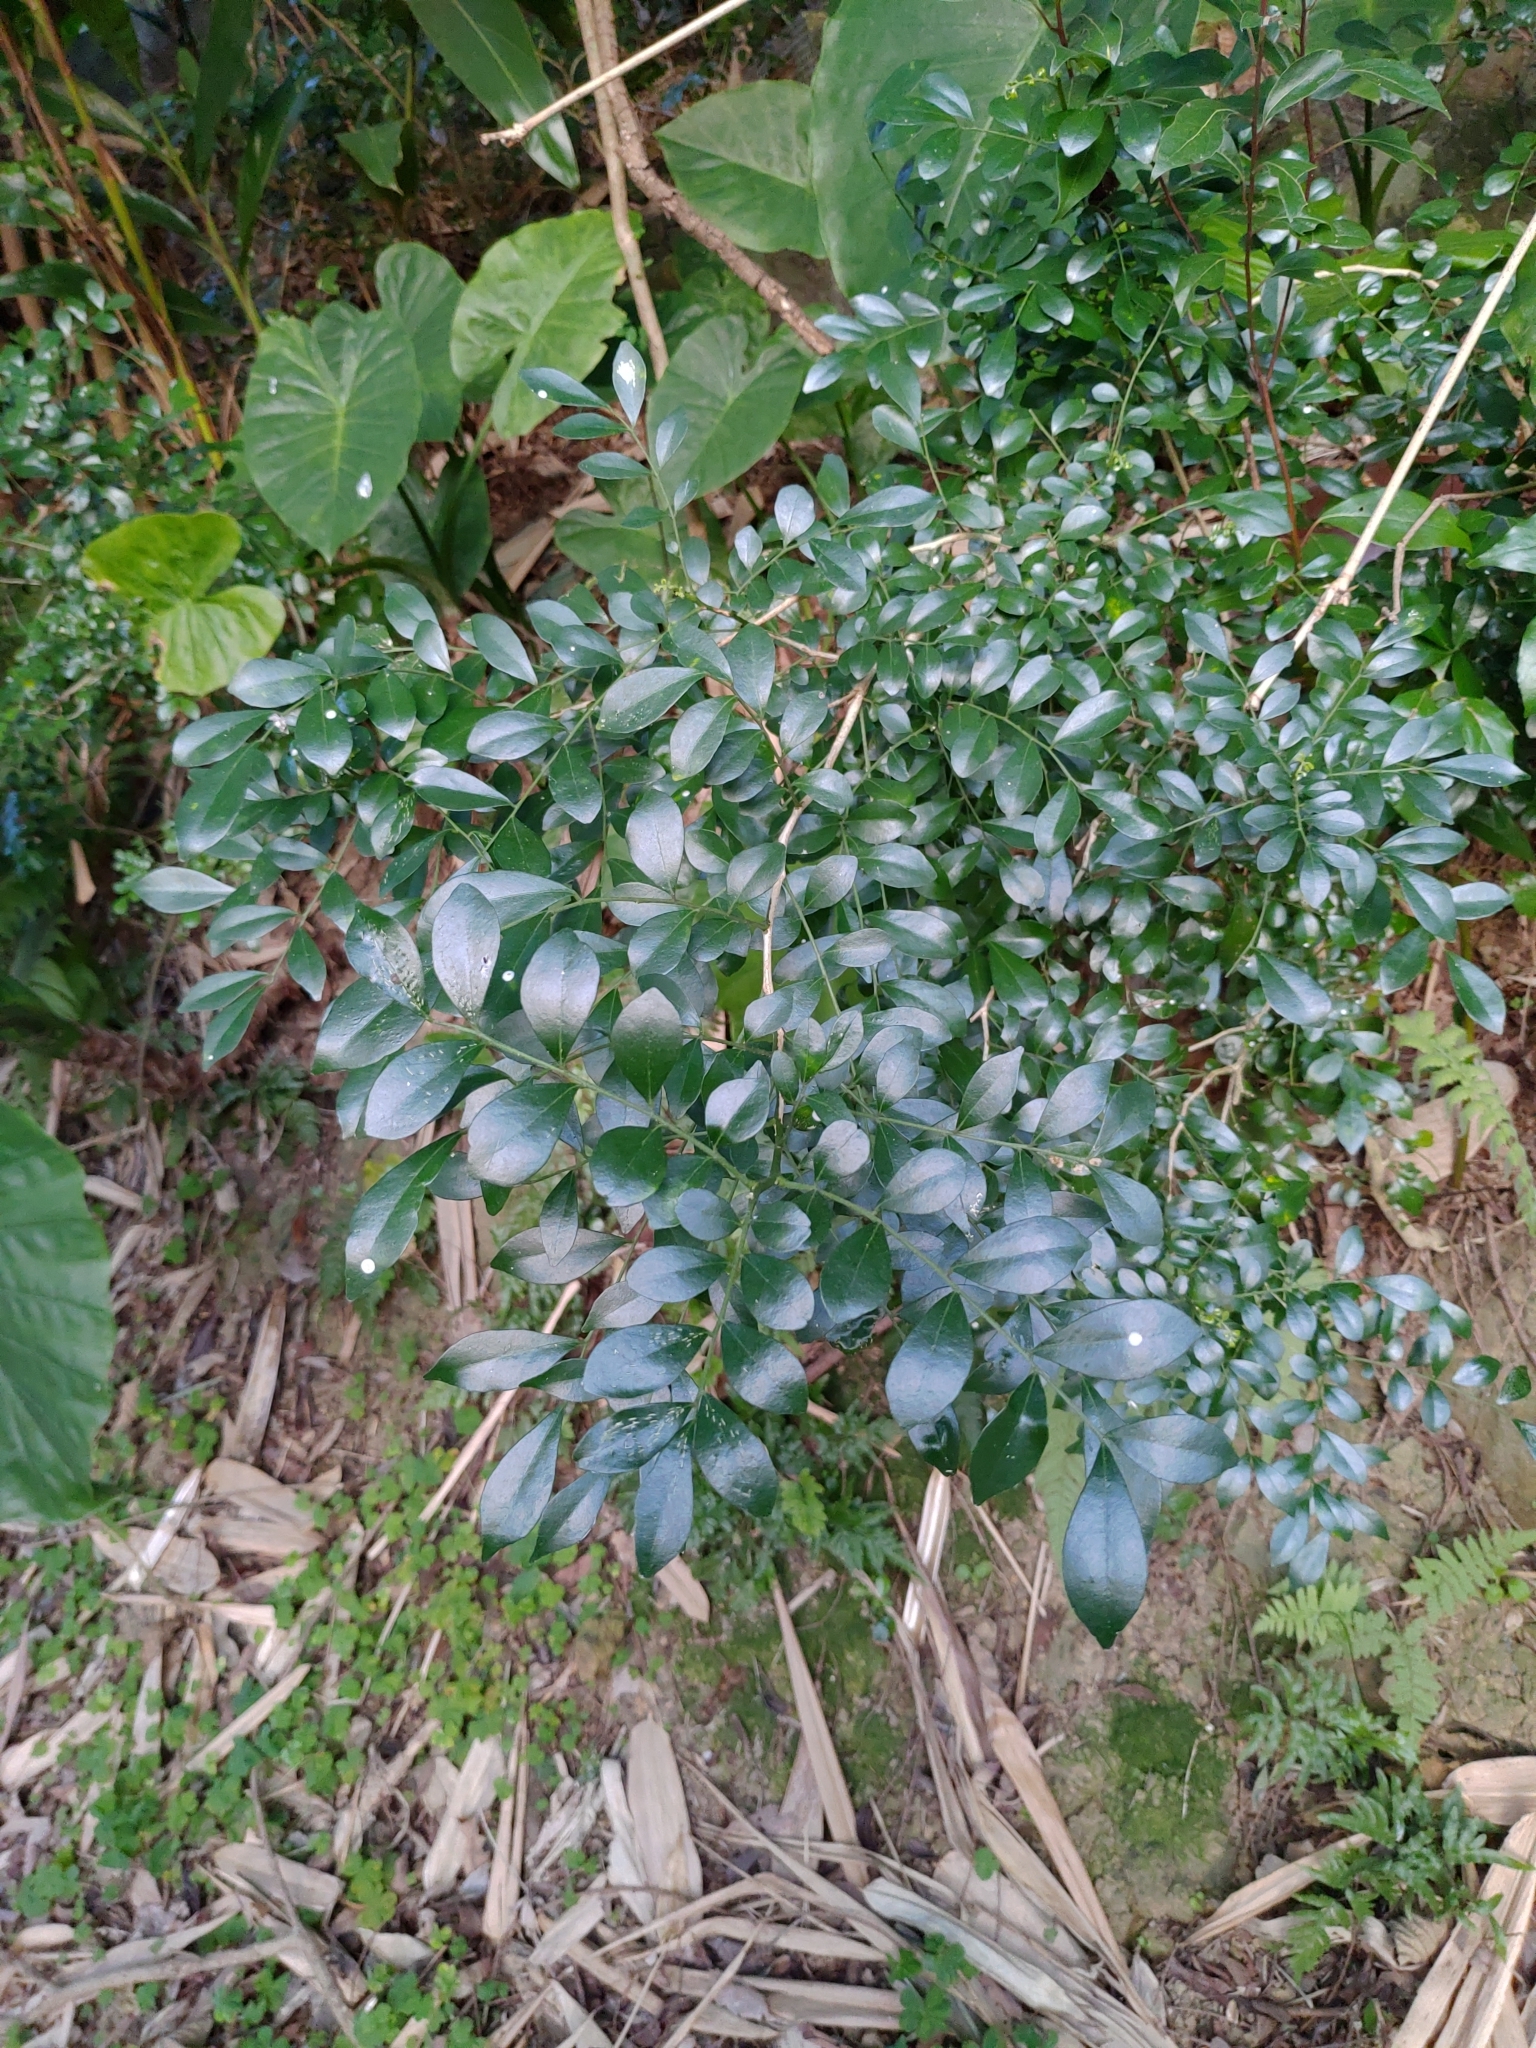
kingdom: Plantae
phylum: Tracheophyta
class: Magnoliopsida
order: Sapindales
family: Rutaceae
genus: Murraya
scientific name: Murraya paniculata
